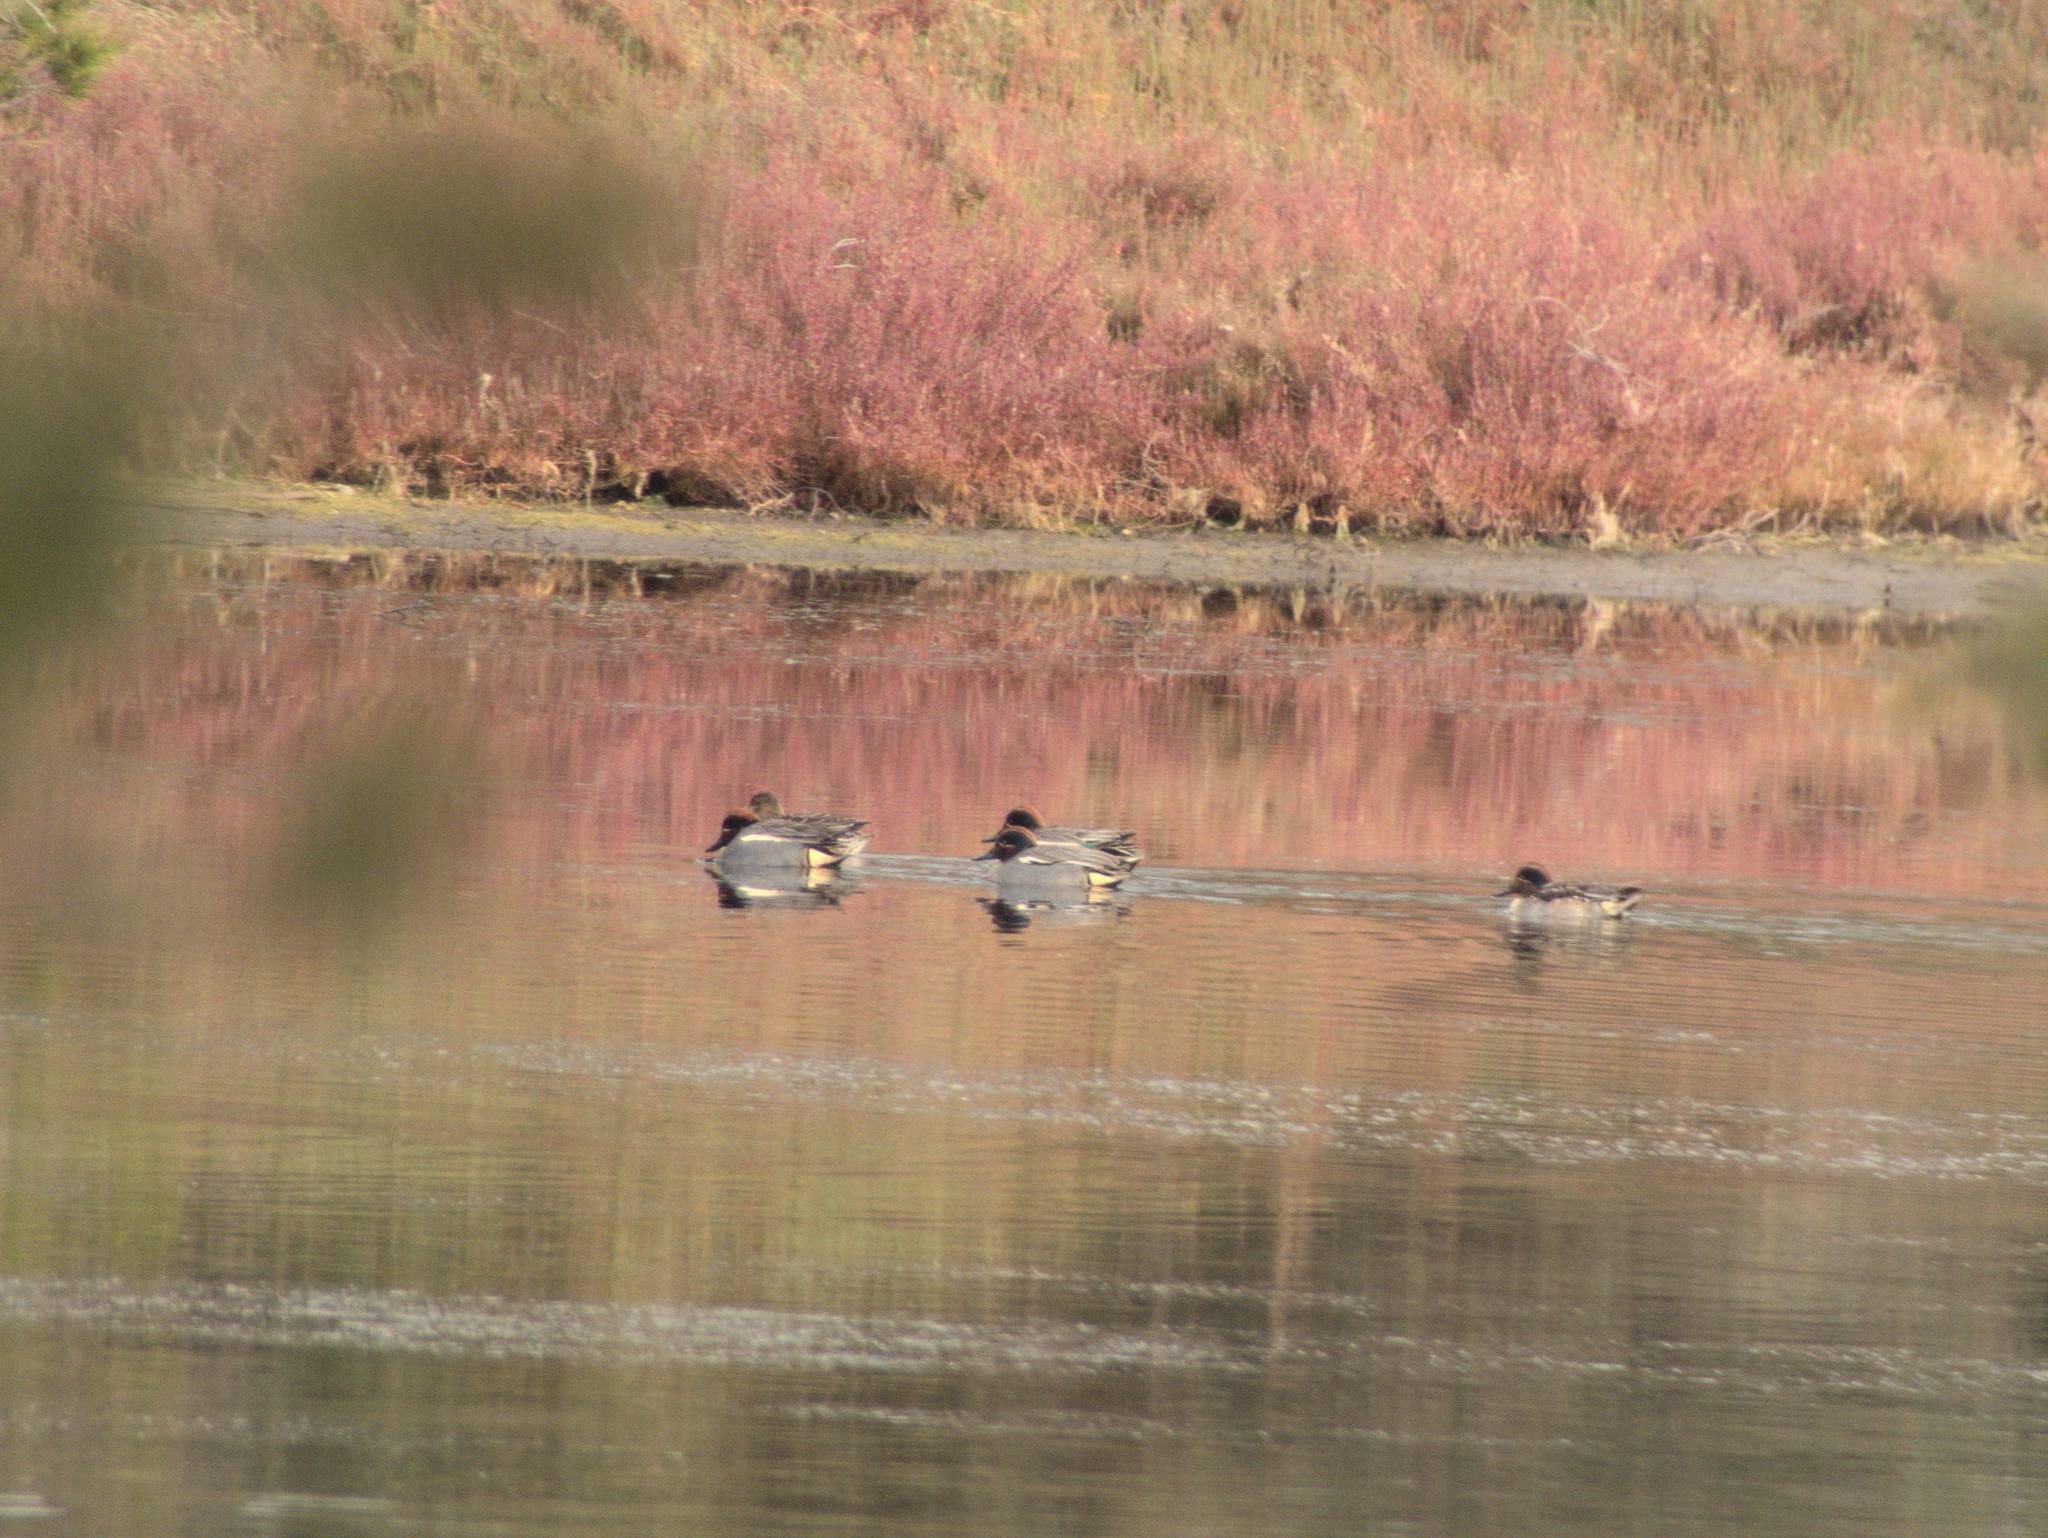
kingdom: Animalia
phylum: Chordata
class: Aves
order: Anseriformes
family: Anatidae
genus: Anas
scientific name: Anas crecca
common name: Eurasian teal
